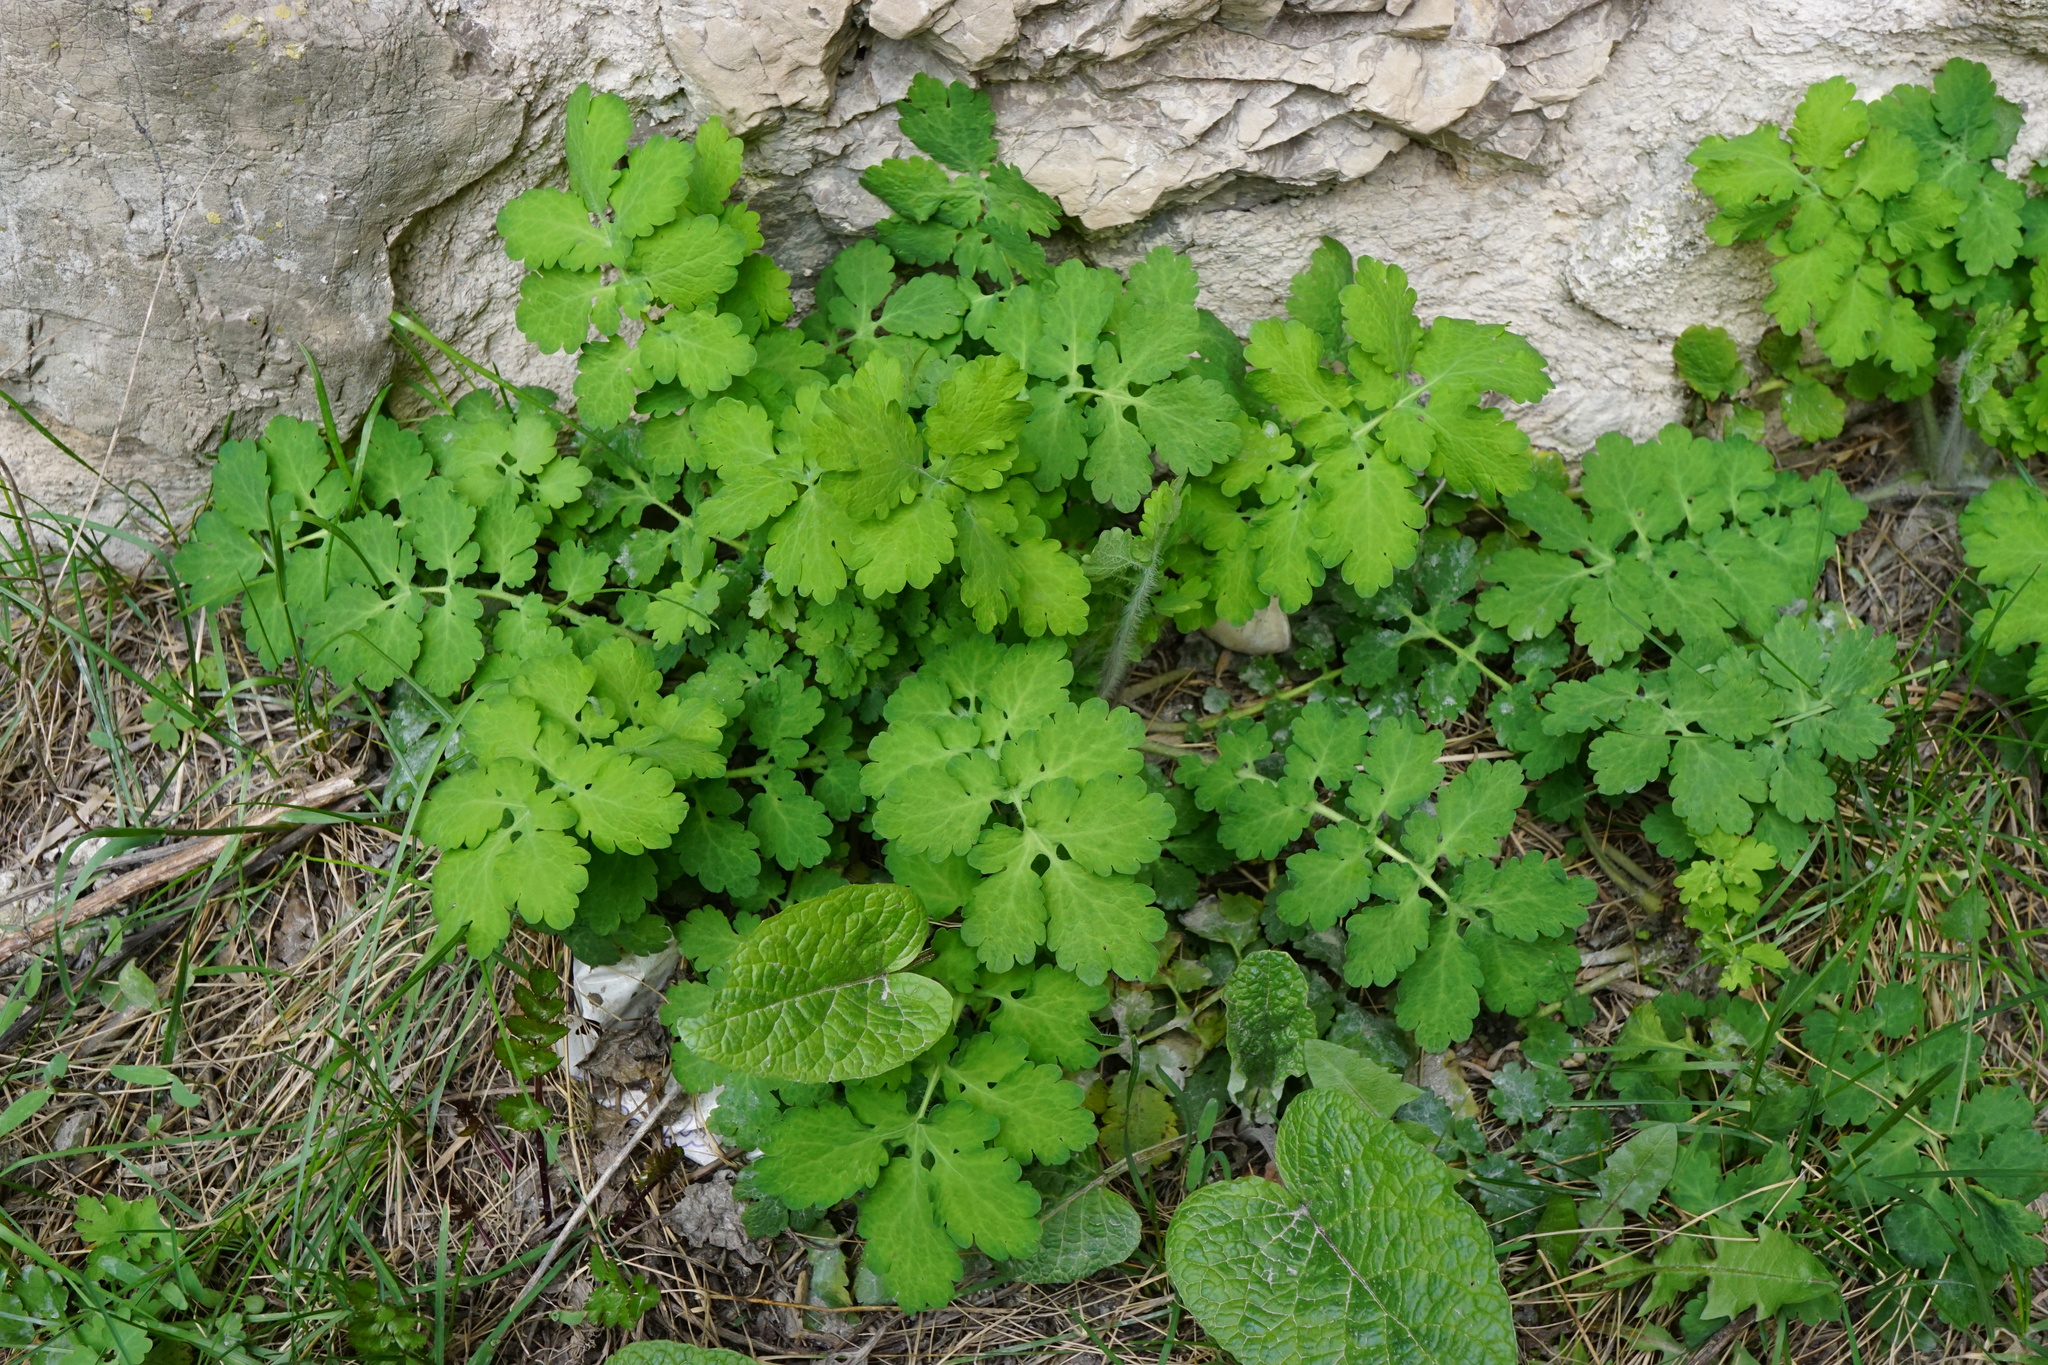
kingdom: Plantae
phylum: Tracheophyta
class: Magnoliopsida
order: Ranunculales
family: Papaveraceae
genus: Chelidonium
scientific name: Chelidonium majus
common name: Greater celandine
